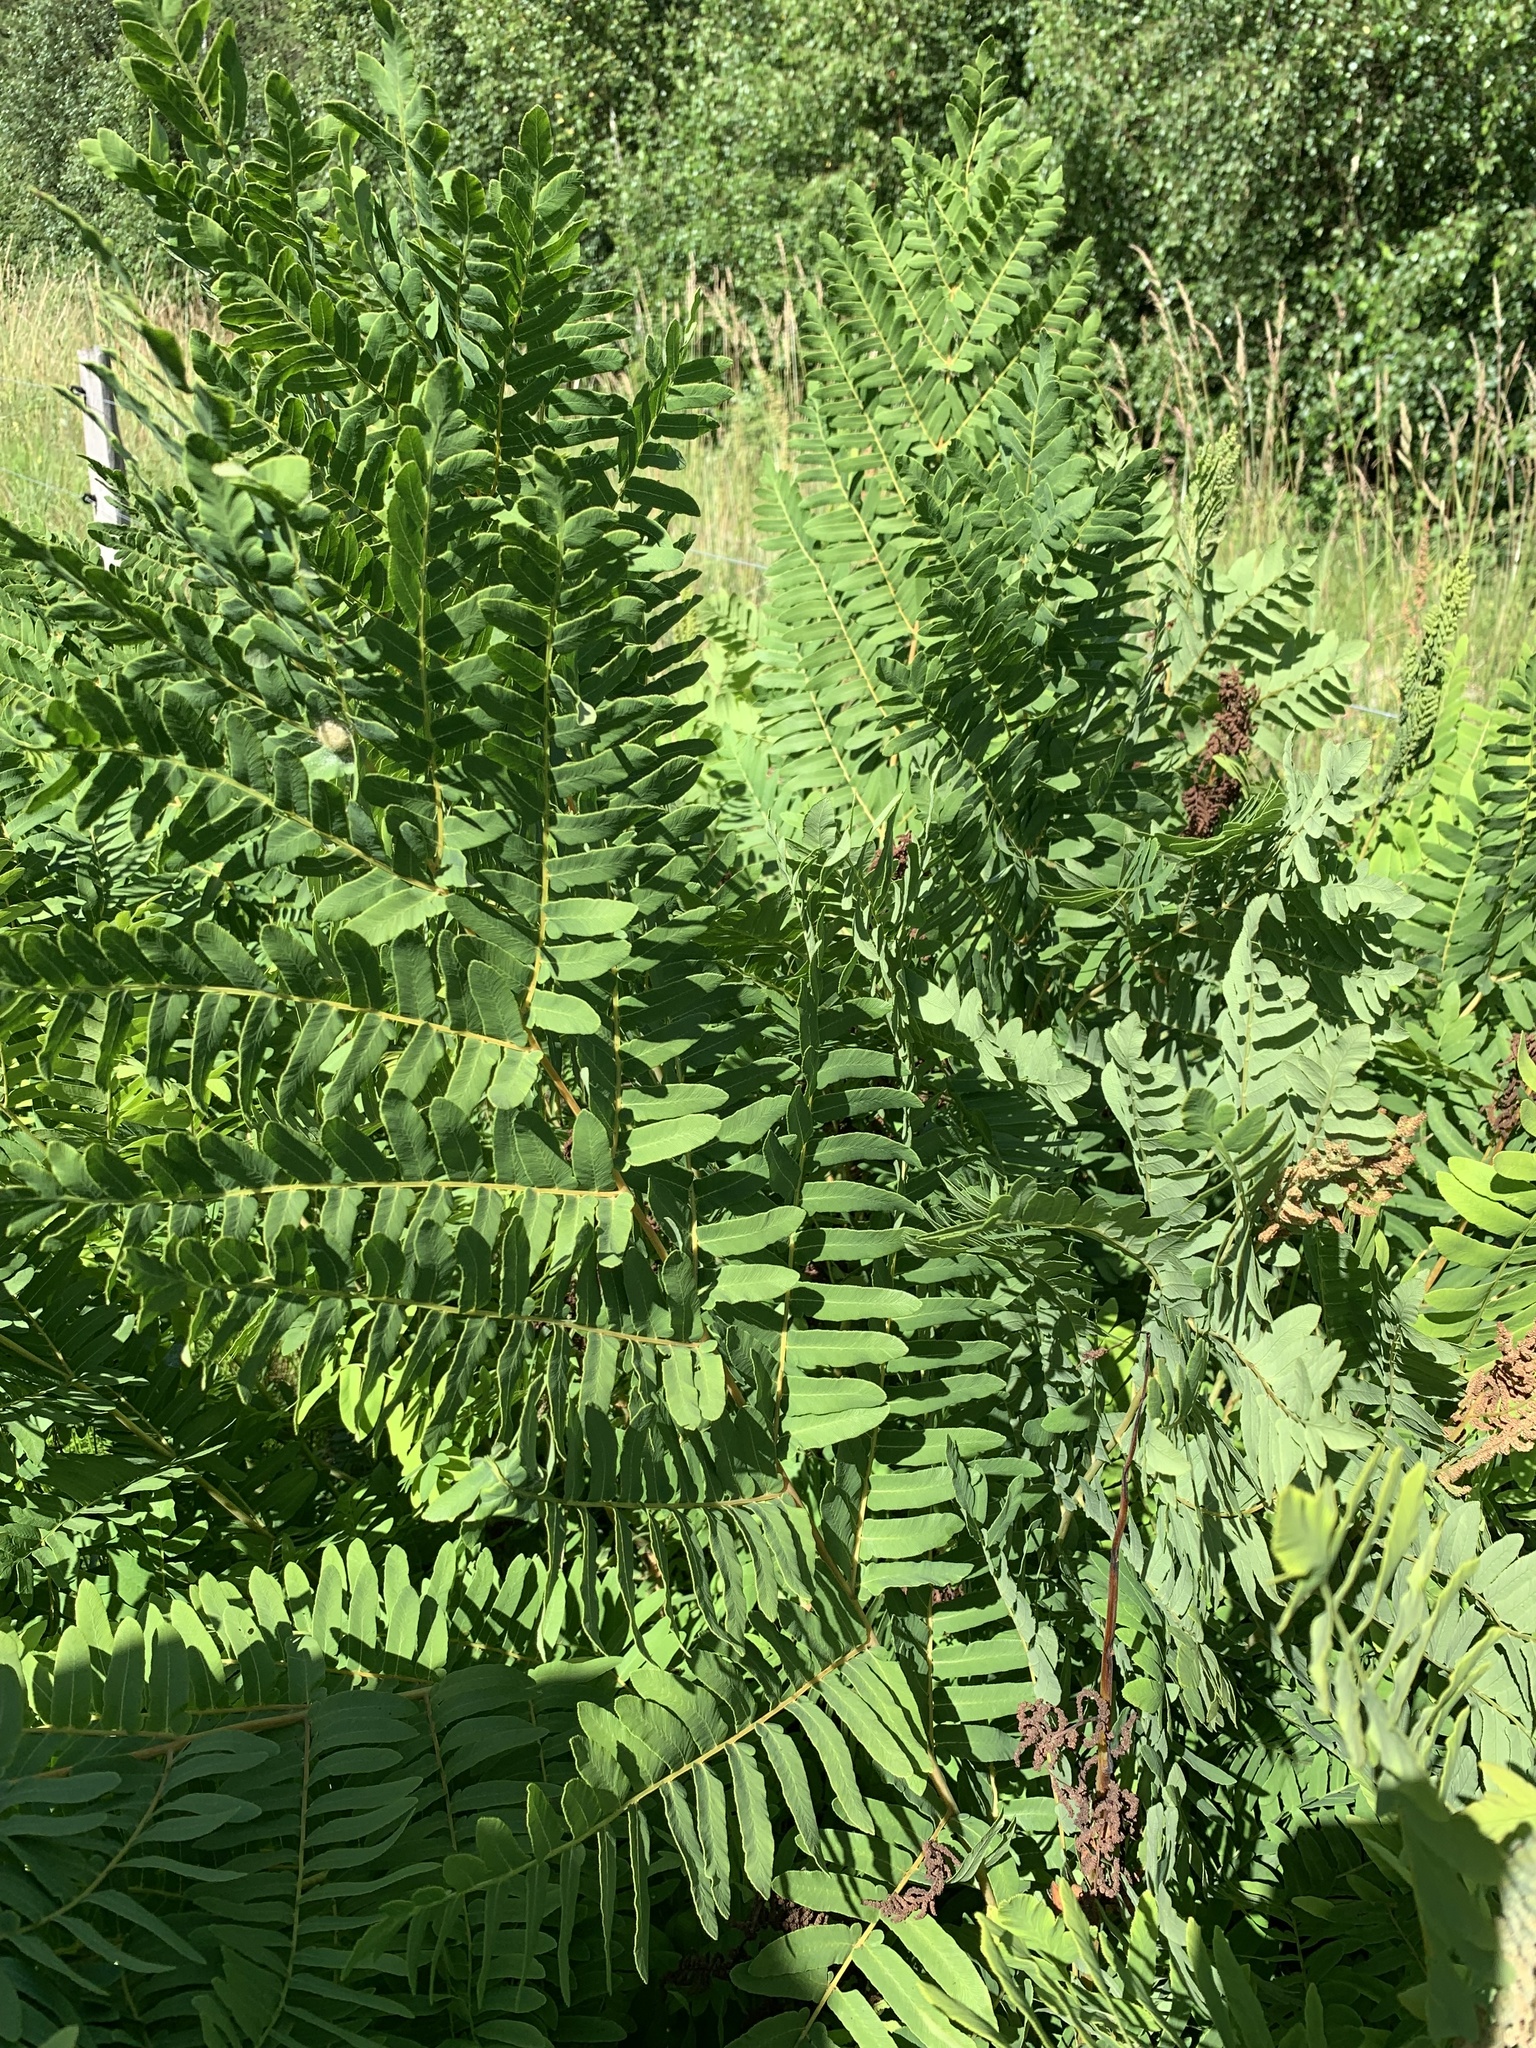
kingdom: Plantae
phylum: Tracheophyta
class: Polypodiopsida
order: Osmundales
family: Osmundaceae
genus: Osmunda
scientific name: Osmunda regalis
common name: Royal fern
